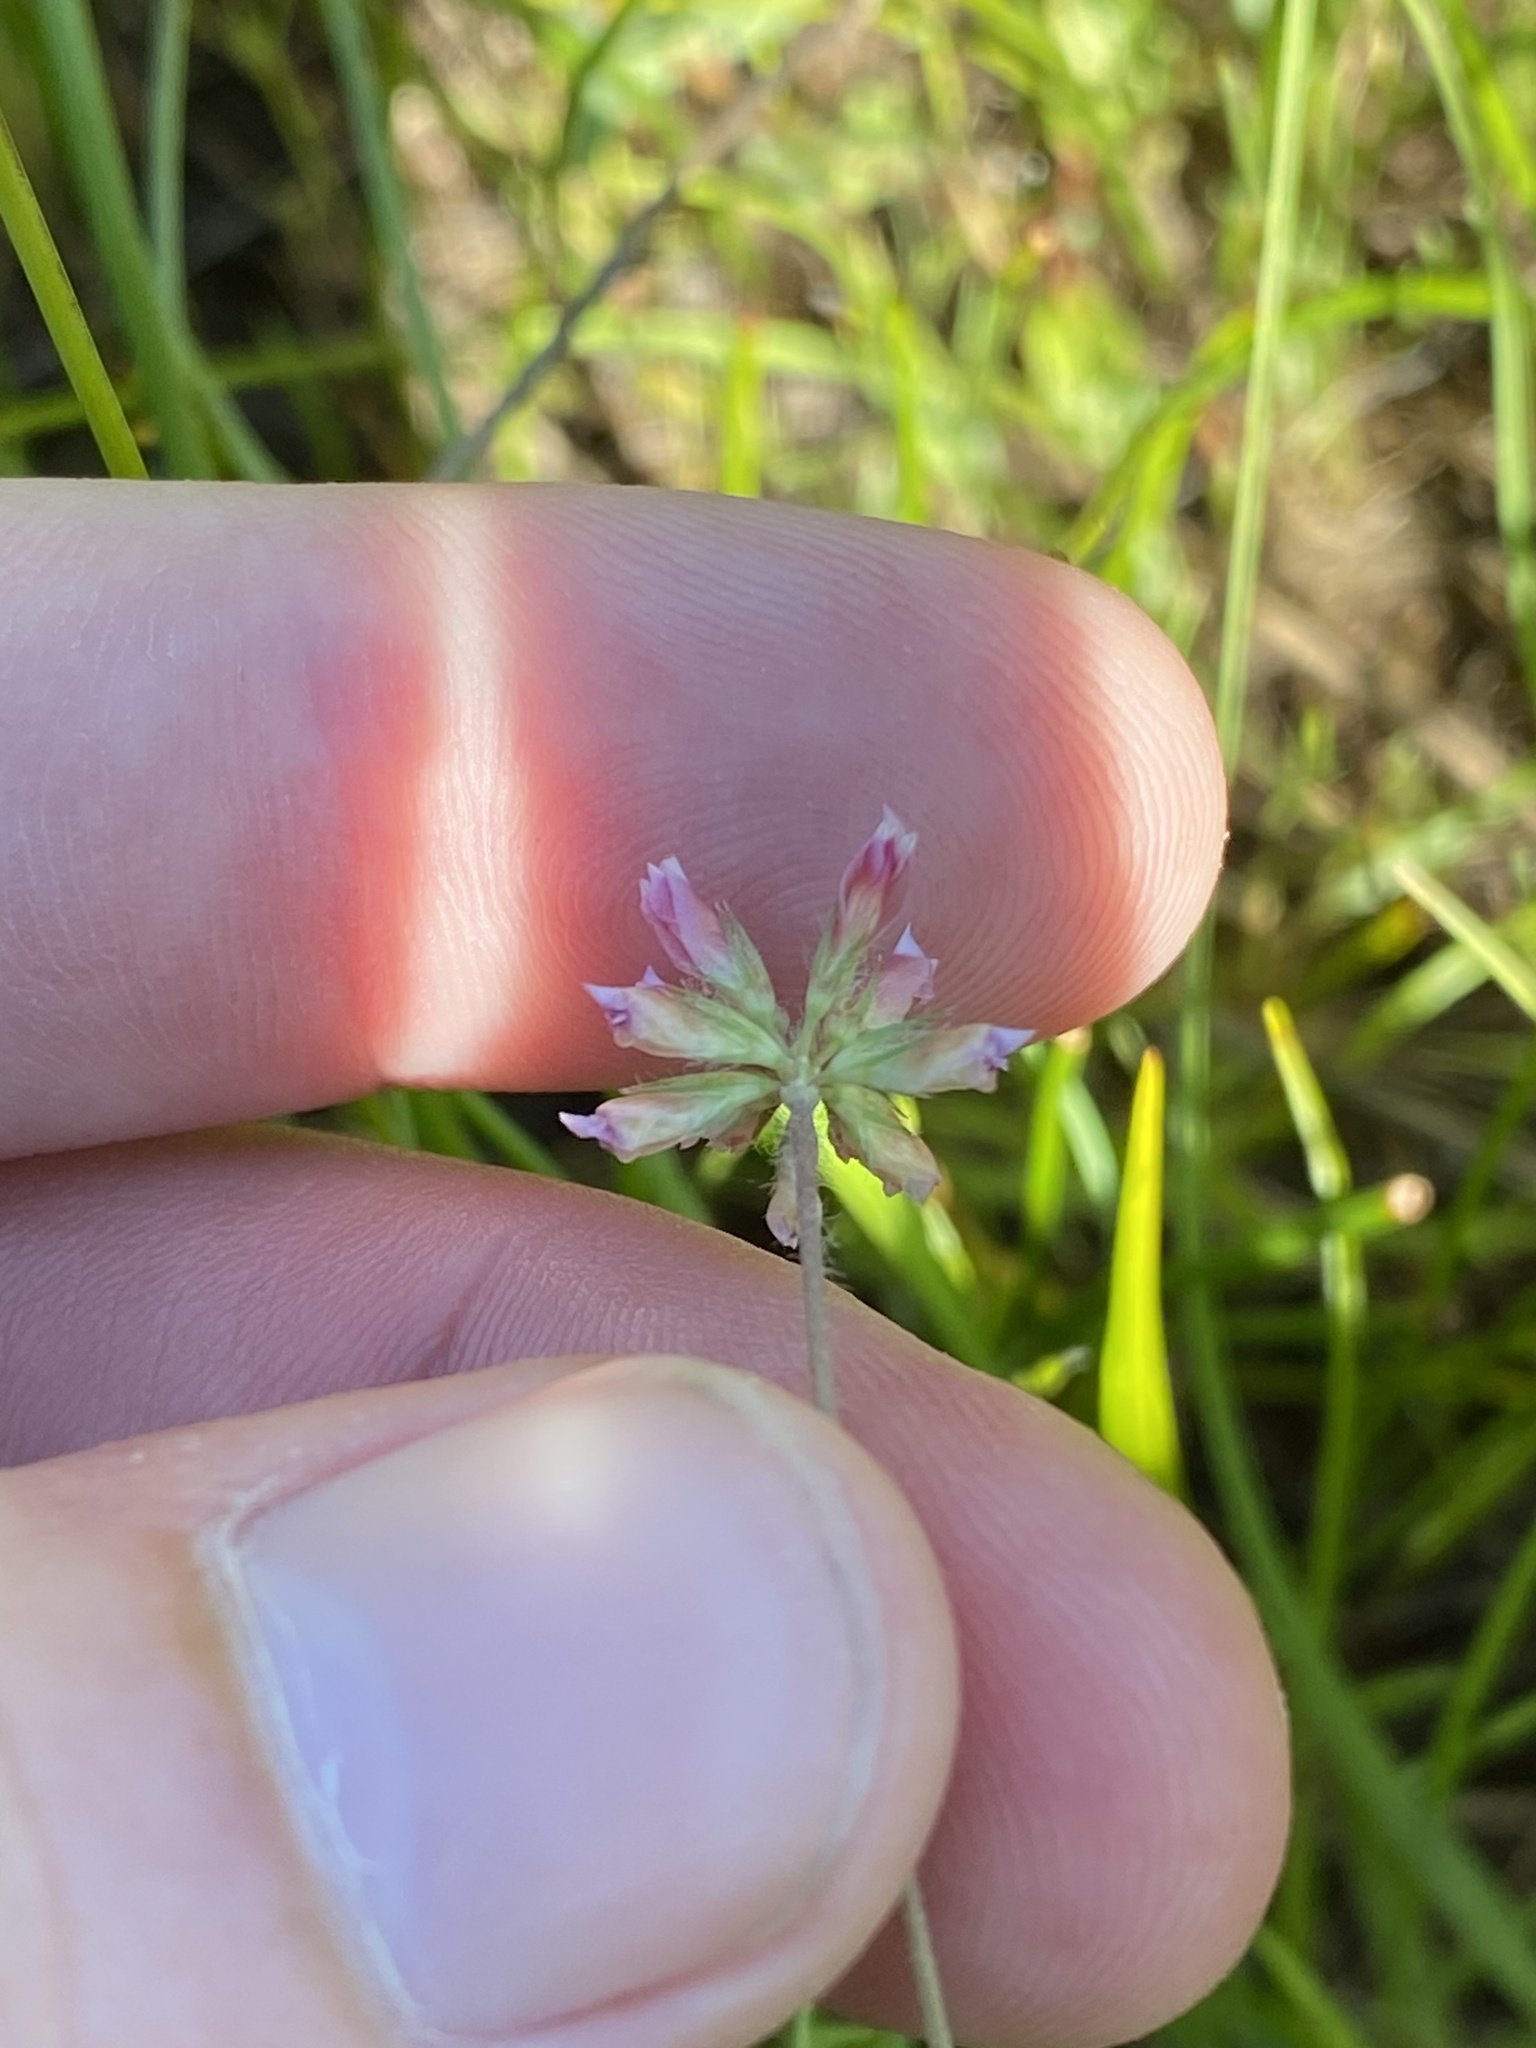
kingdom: Plantae
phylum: Tracheophyta
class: Magnoliopsida
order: Fabales
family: Fabaceae
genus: Trifolium
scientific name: Trifolium bifidum
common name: Notch-leaf clover
